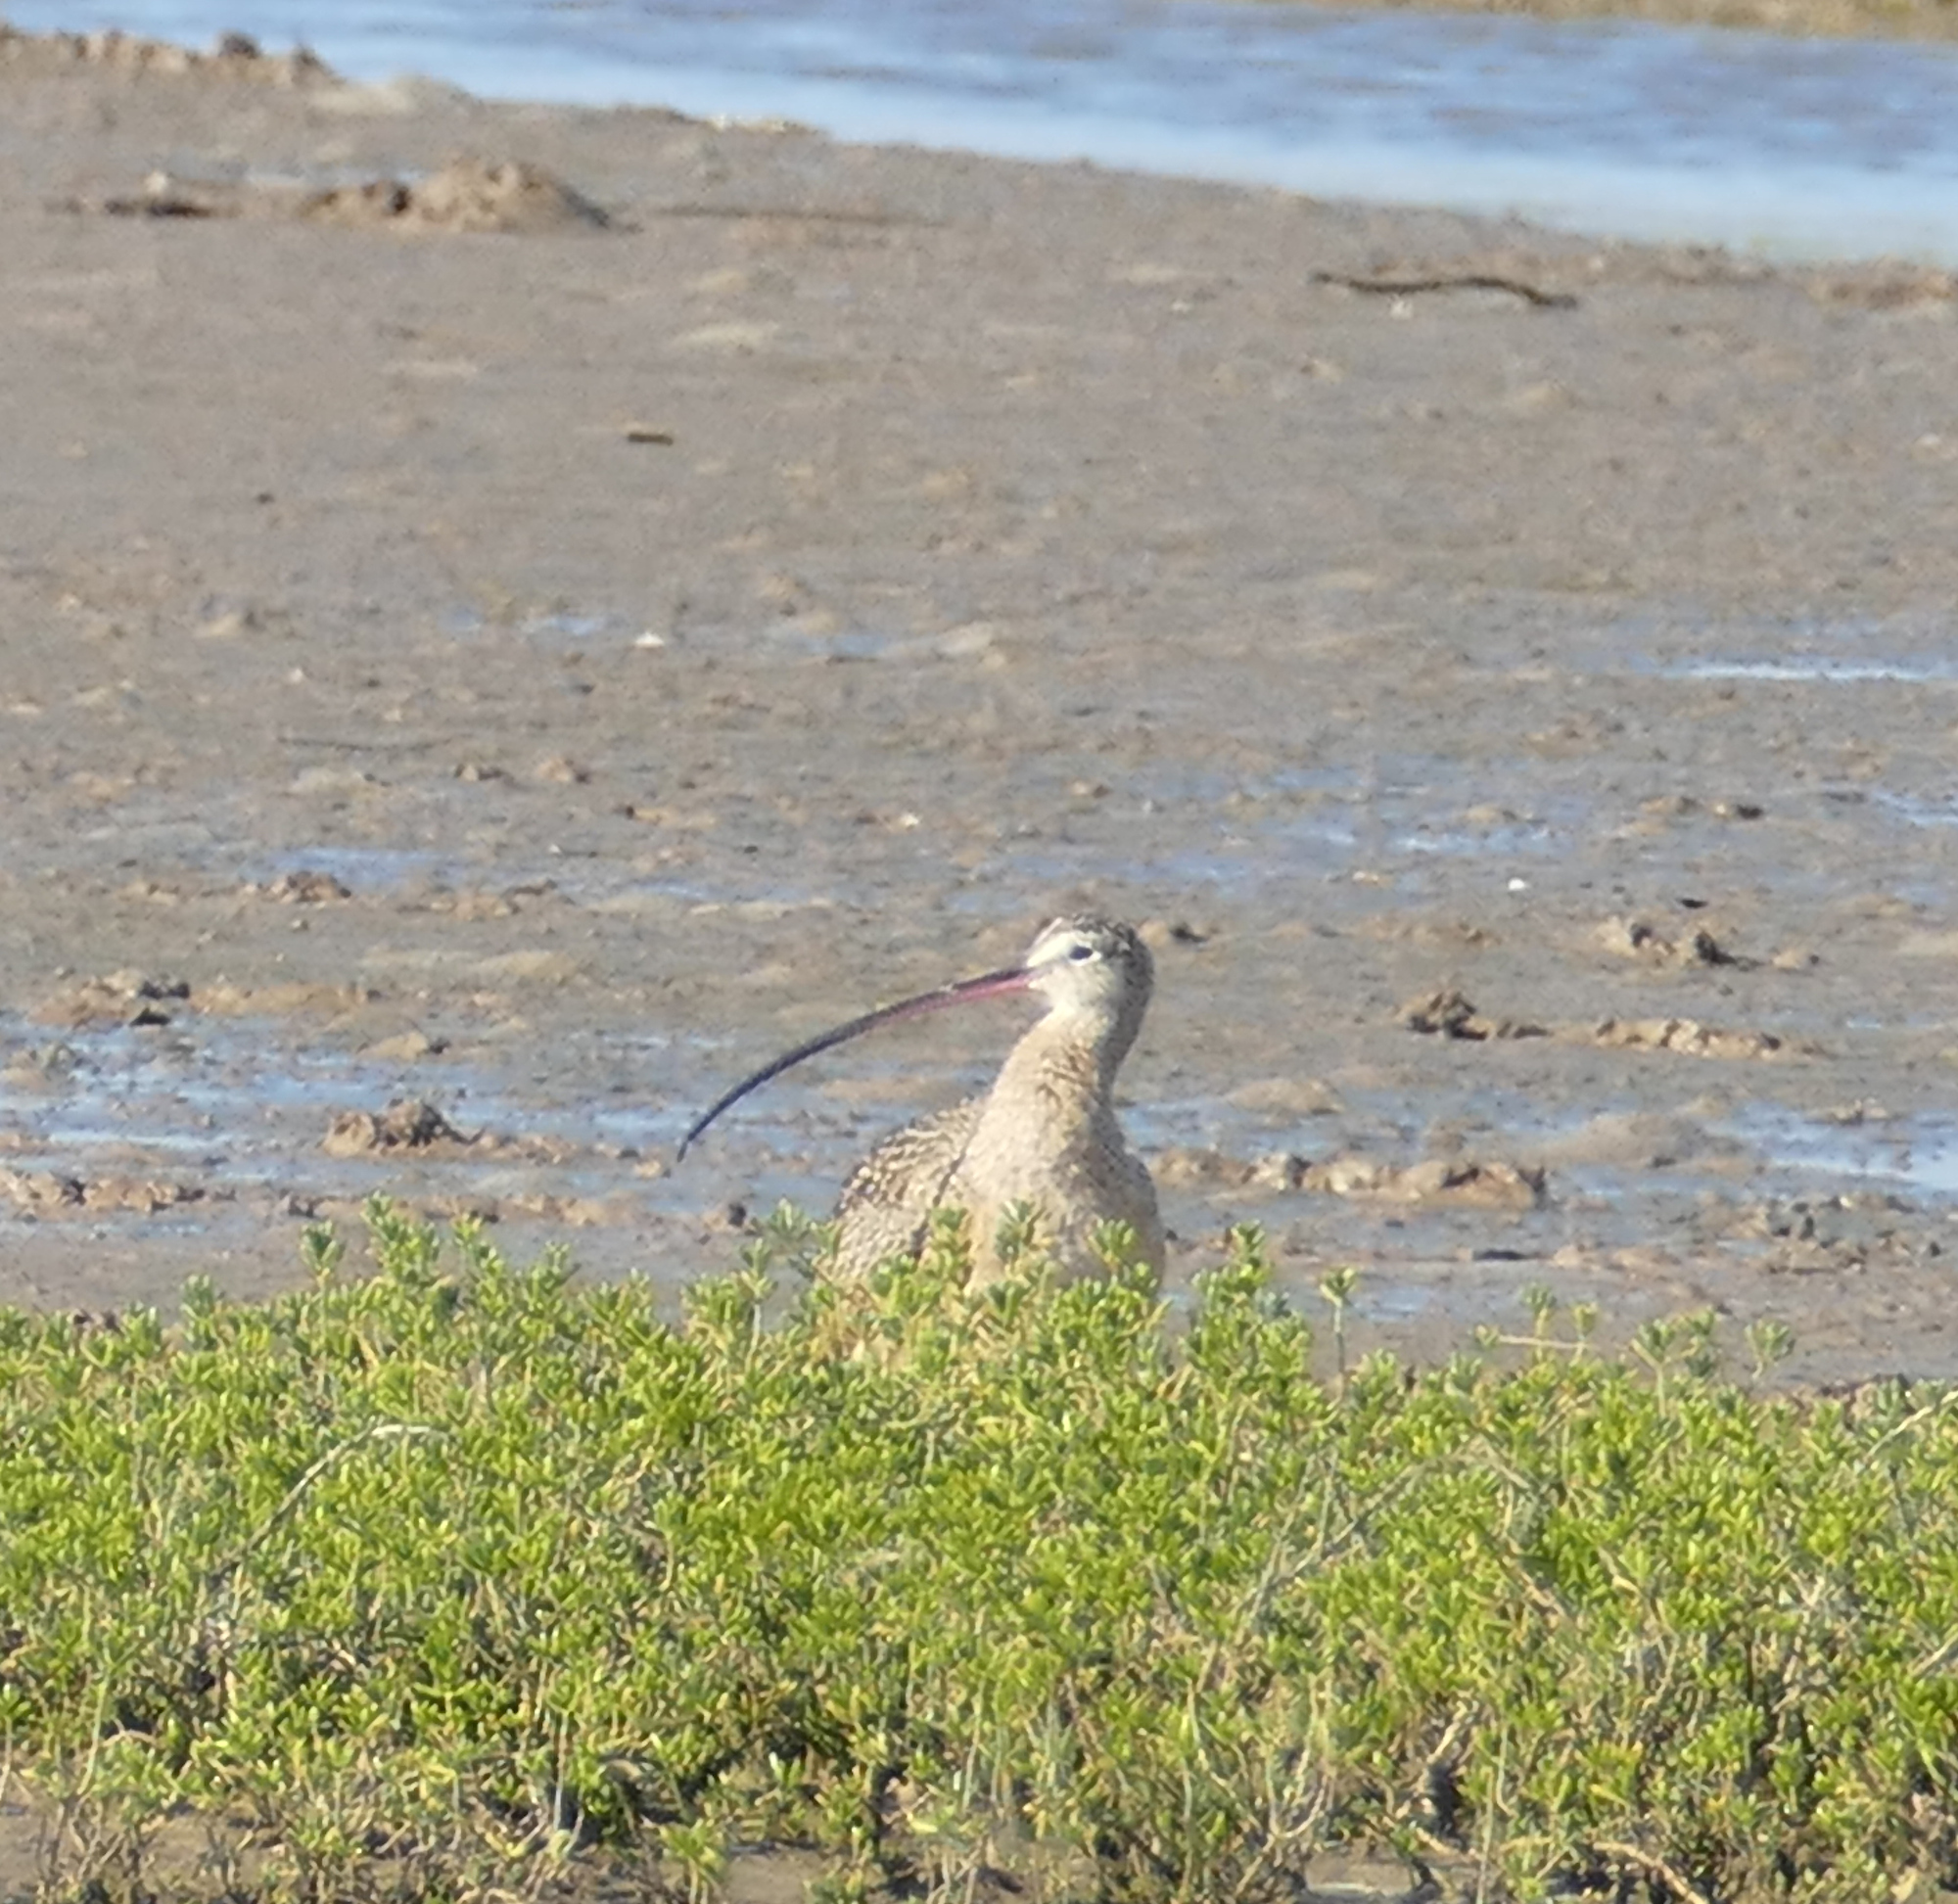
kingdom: Animalia
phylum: Chordata
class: Aves
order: Charadriiformes
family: Scolopacidae
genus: Numenius
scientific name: Numenius americanus
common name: Long-billed curlew
